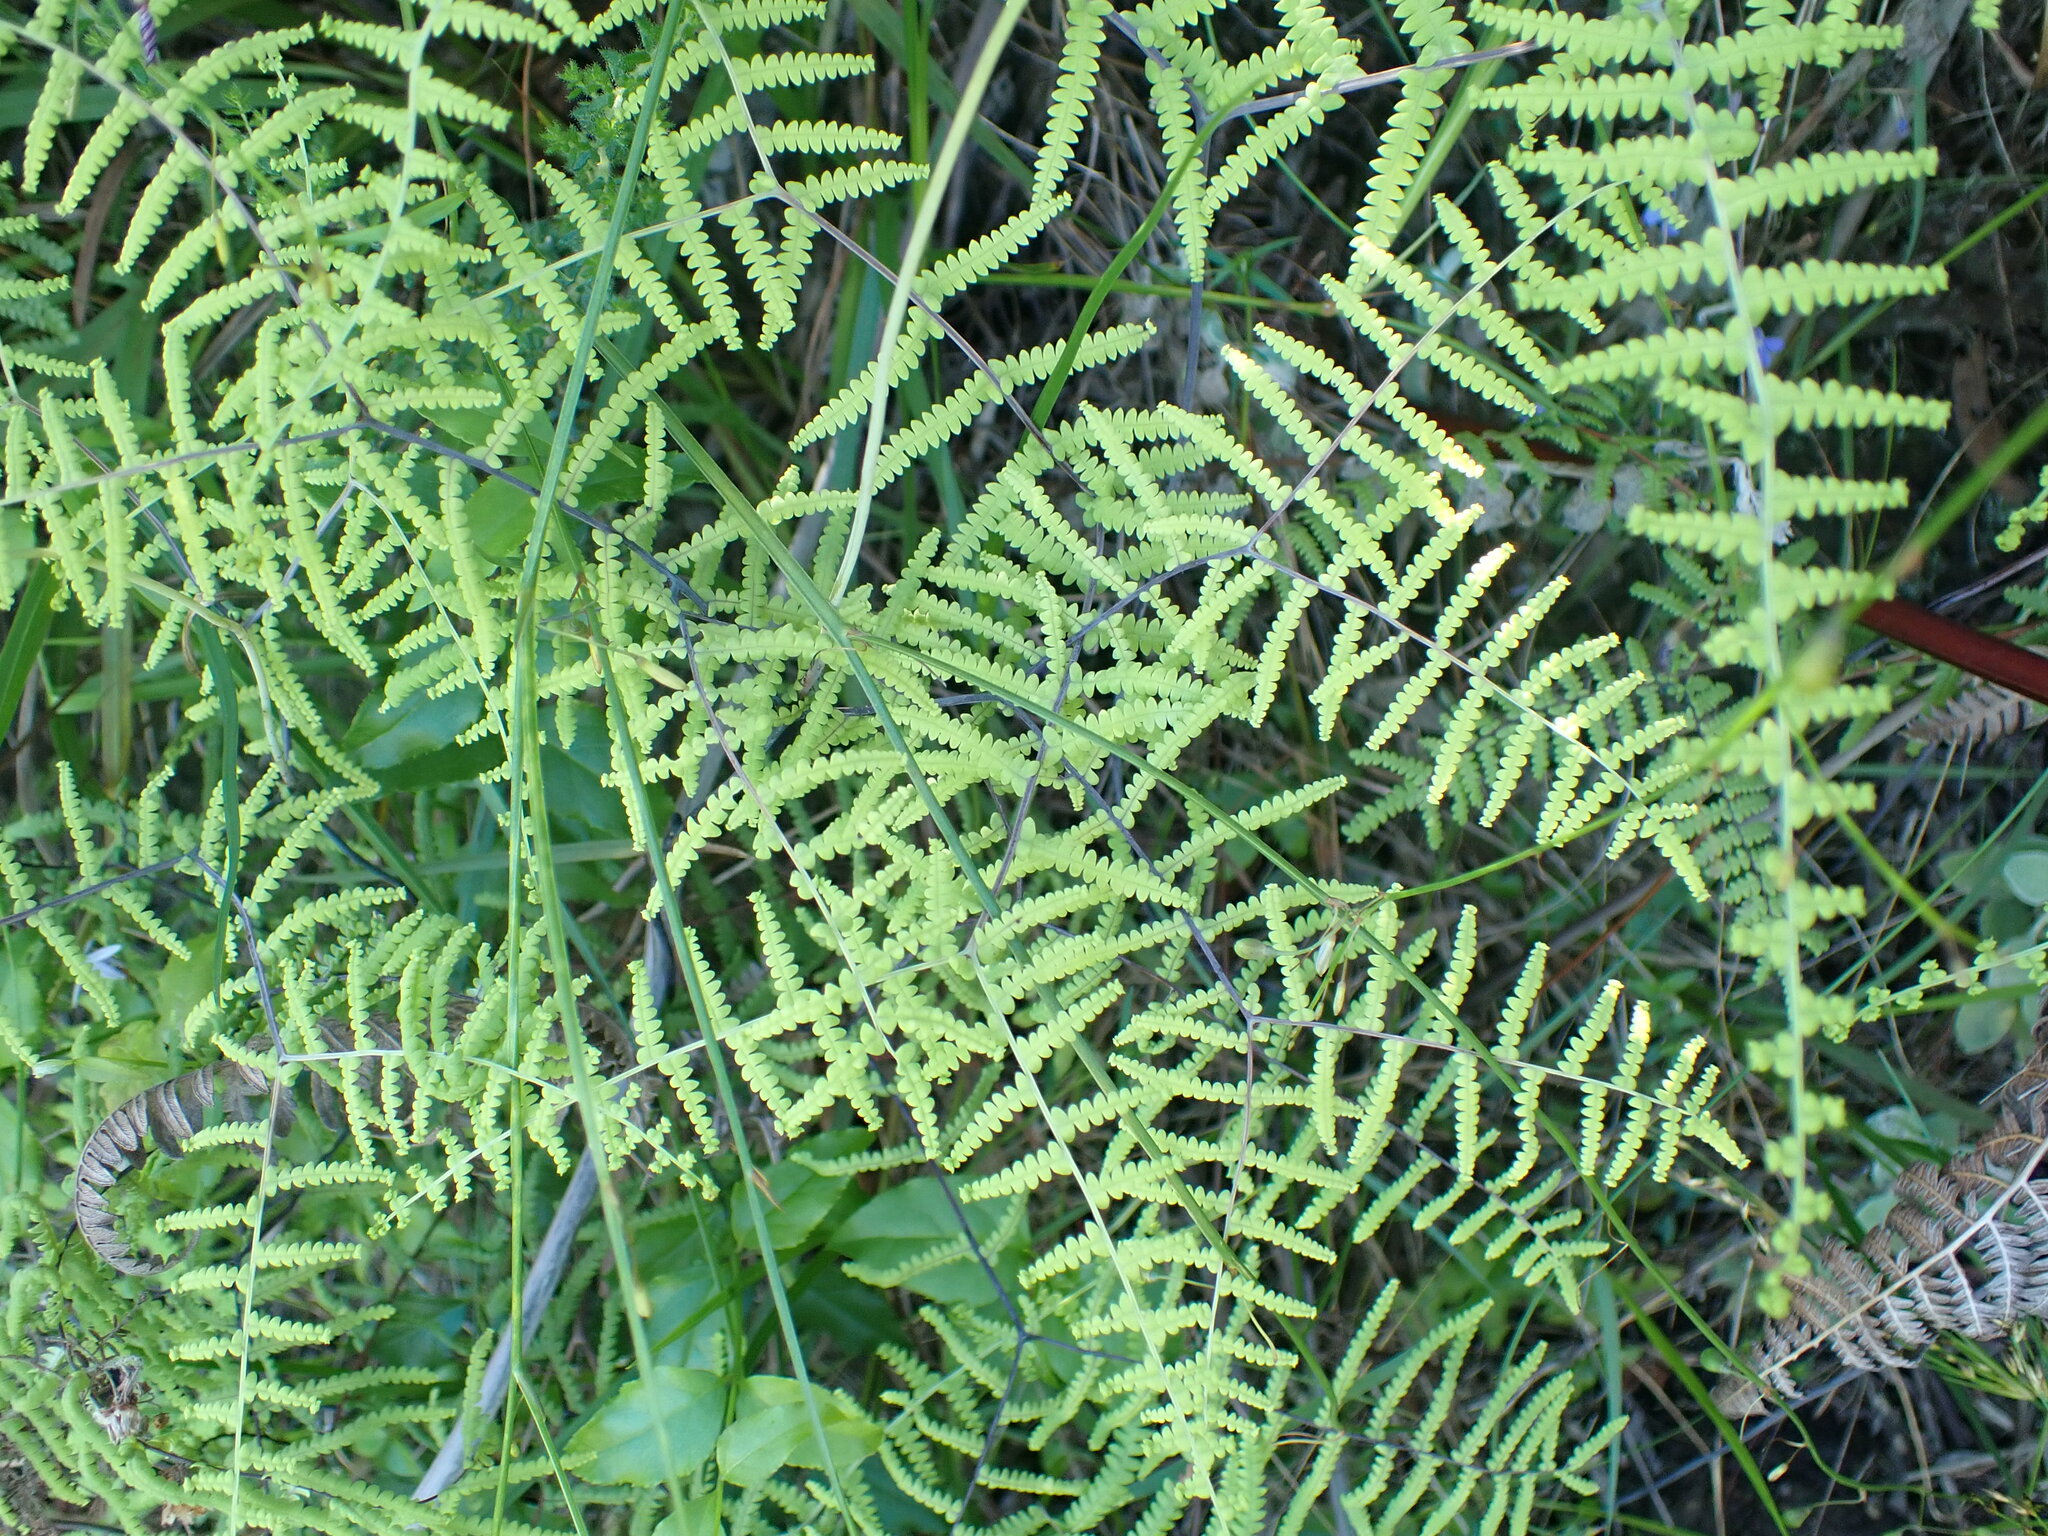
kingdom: Plantae
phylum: Tracheophyta
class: Polypodiopsida
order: Gleicheniales
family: Gleicheniaceae
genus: Gleichenia
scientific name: Gleichenia polypodioides
